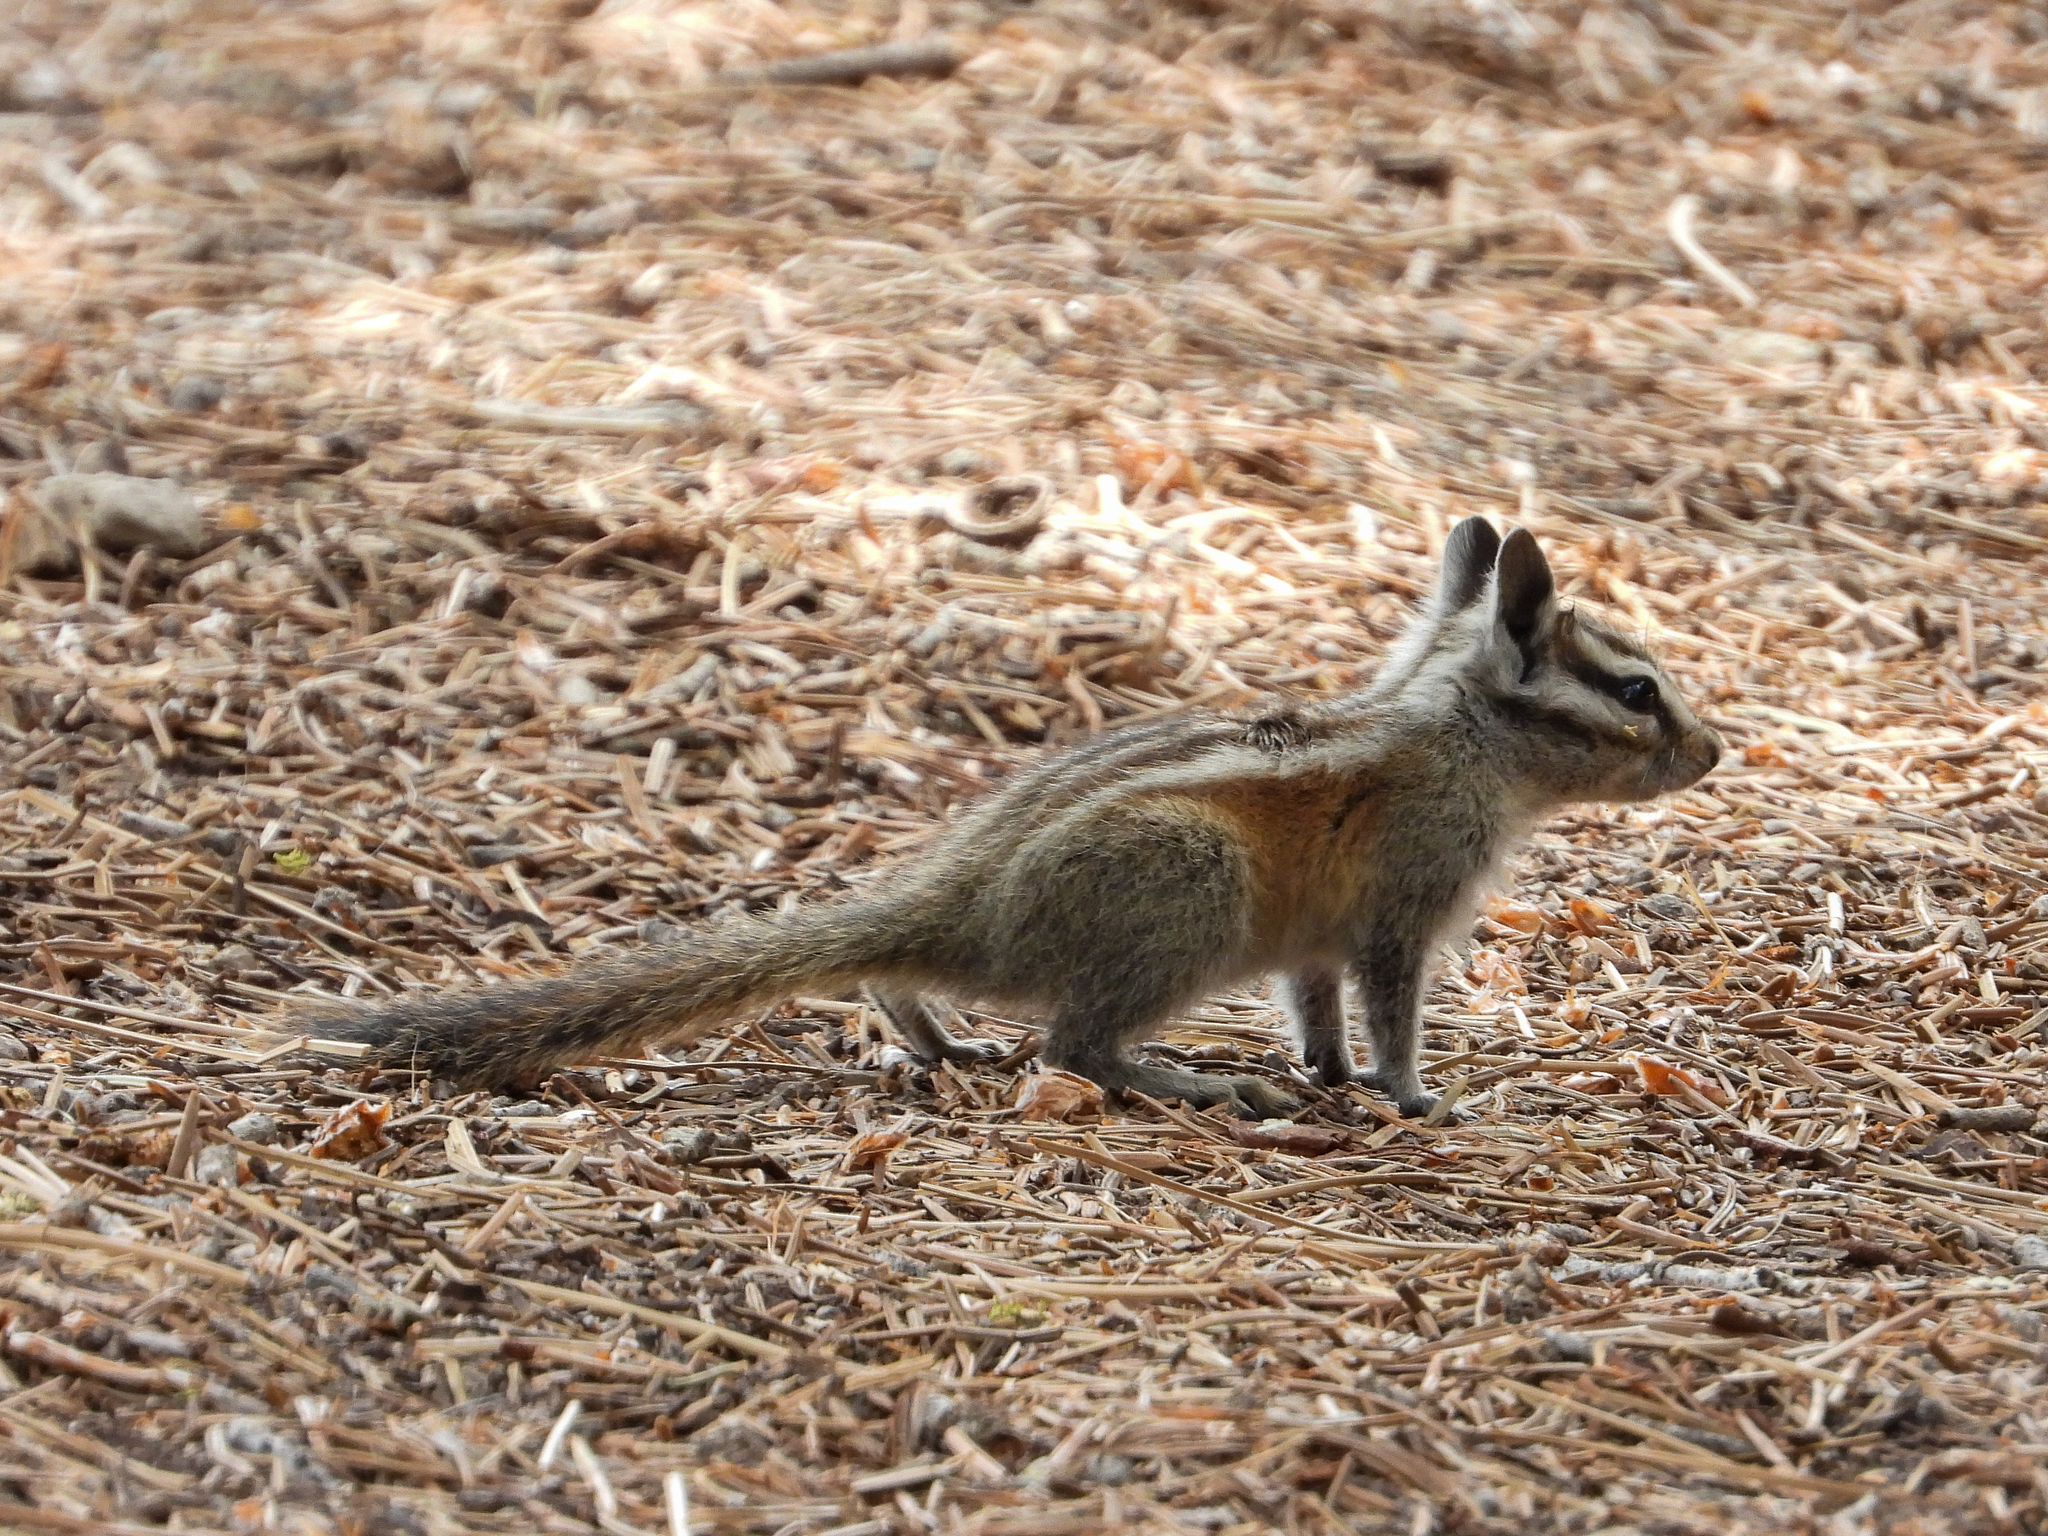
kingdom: Animalia
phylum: Chordata
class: Mammalia
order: Rodentia
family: Sciuridae
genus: Tamias
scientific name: Tamias speciosus
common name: Lodgepole chipmunk
